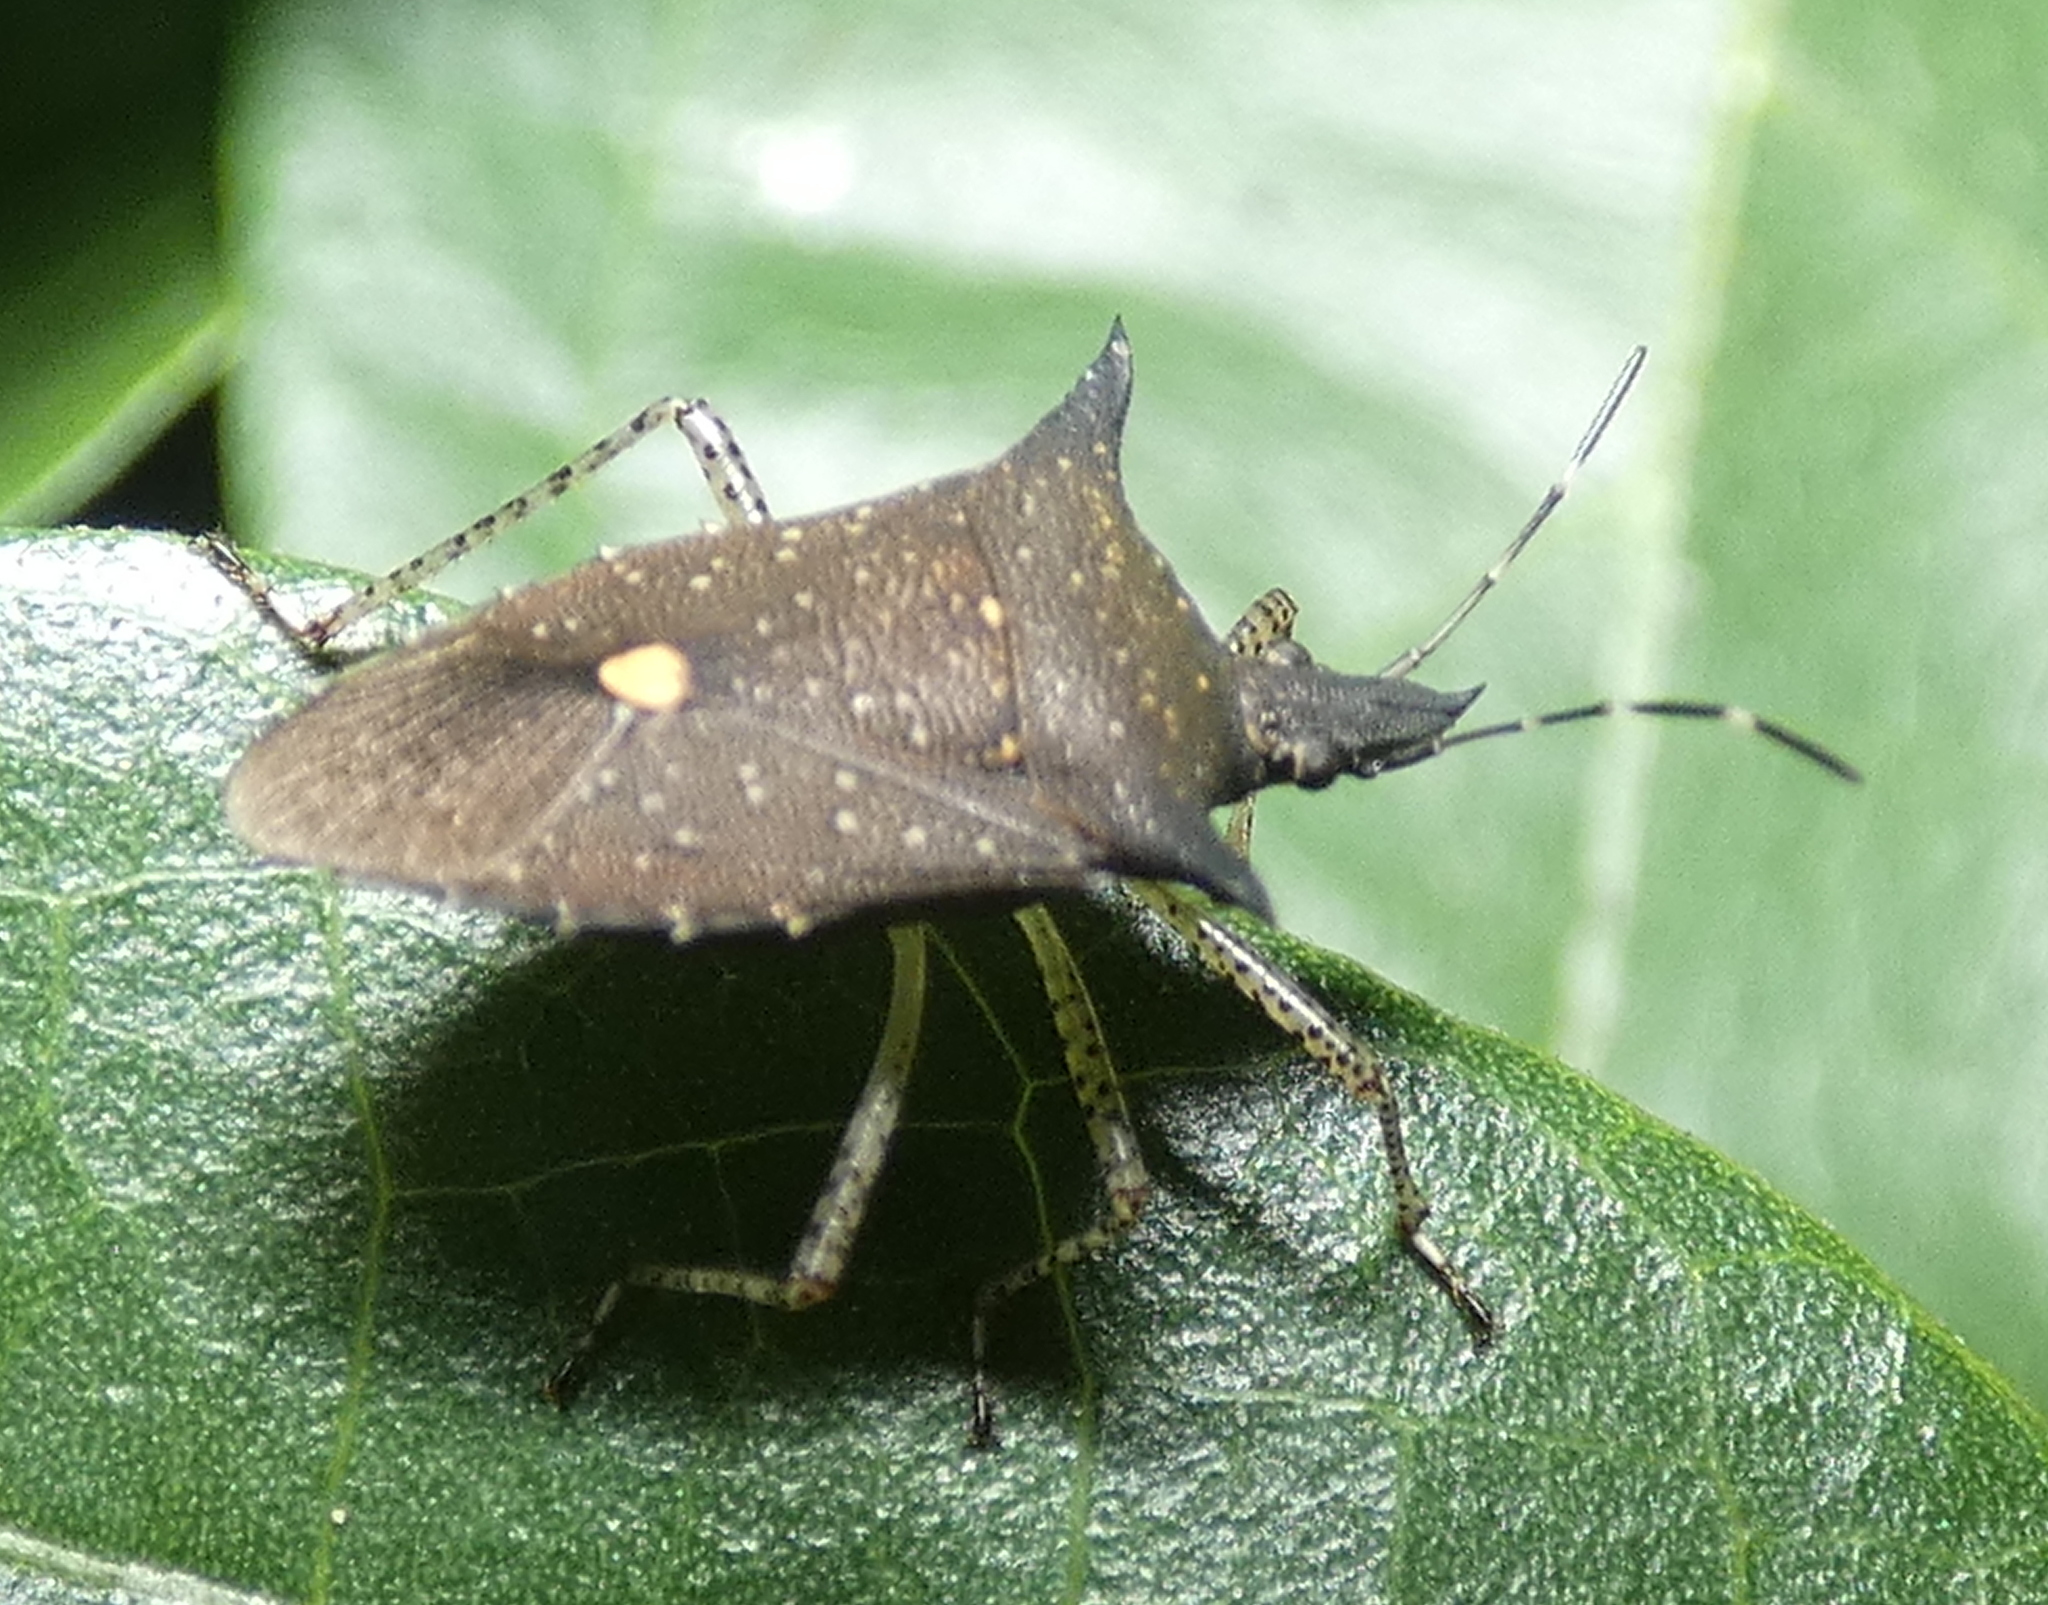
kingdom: Animalia
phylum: Arthropoda
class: Insecta
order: Hemiptera
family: Pentatomidae
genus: Proxys
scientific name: Proxys albopunctulatus
